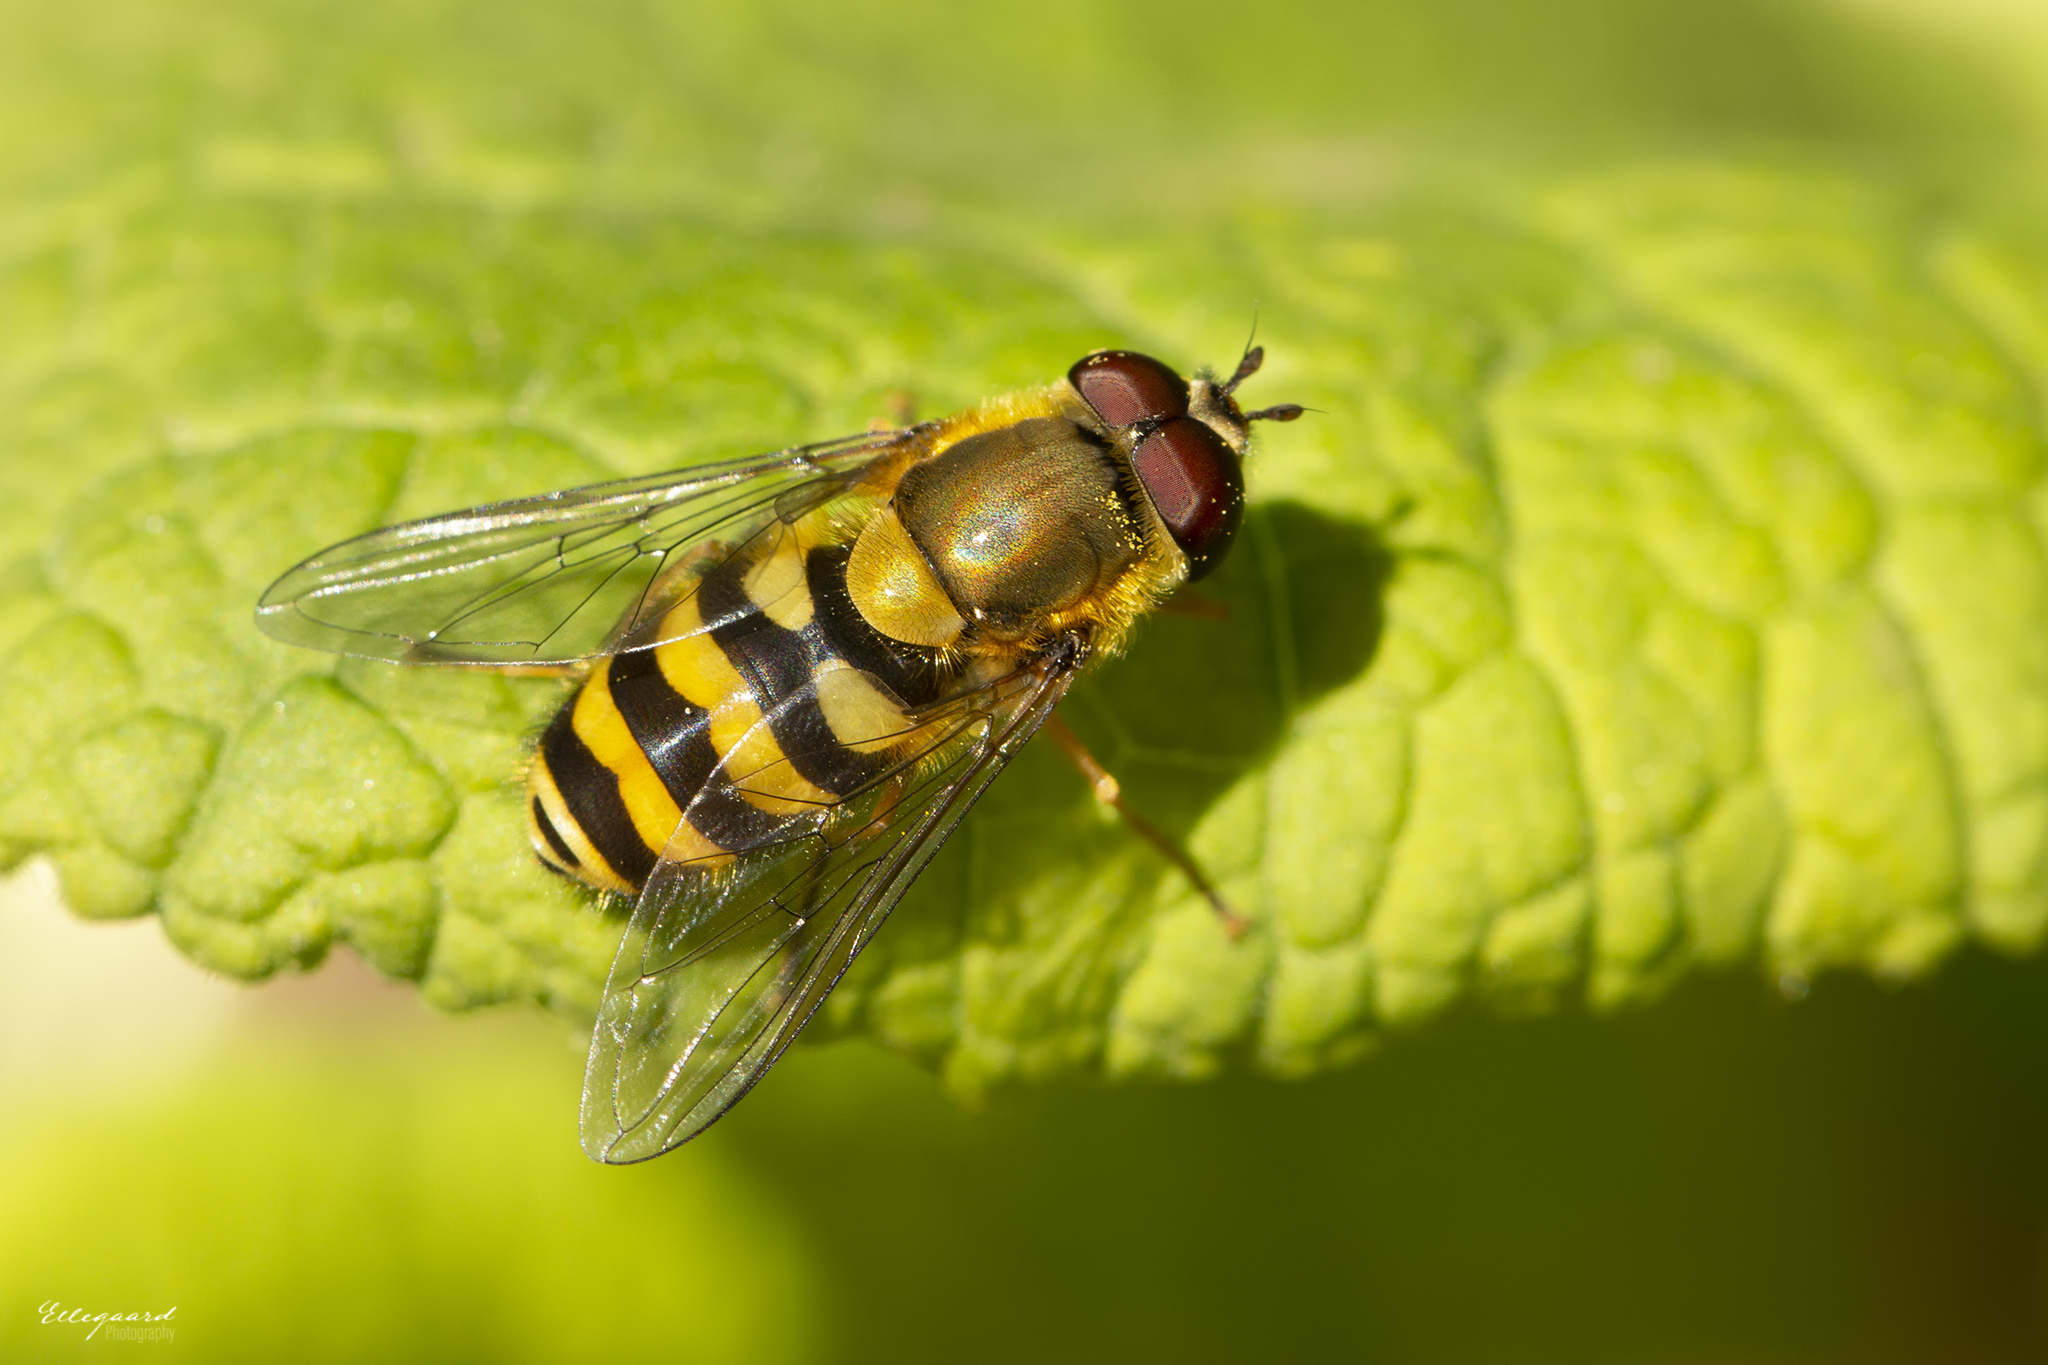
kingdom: Animalia
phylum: Arthropoda
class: Insecta
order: Diptera
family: Syrphidae
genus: Syrphus
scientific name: Syrphus ribesii
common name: Common flower fly
